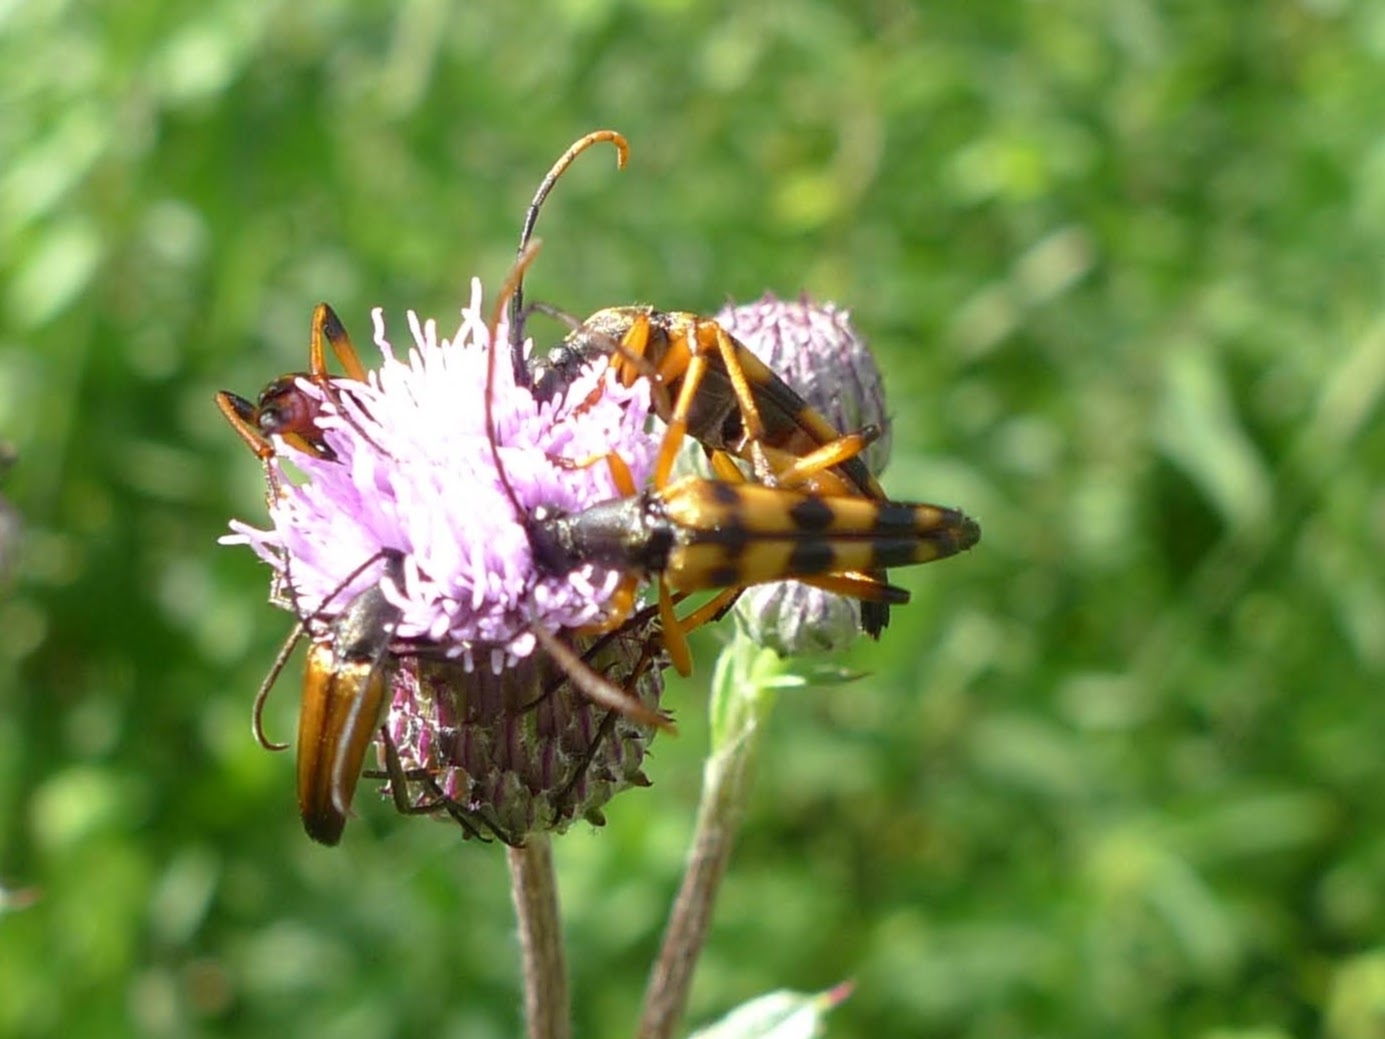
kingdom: Animalia
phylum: Arthropoda
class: Insecta
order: Coleoptera
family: Cerambycidae
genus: Strangalia
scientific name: Strangalia attenuata
